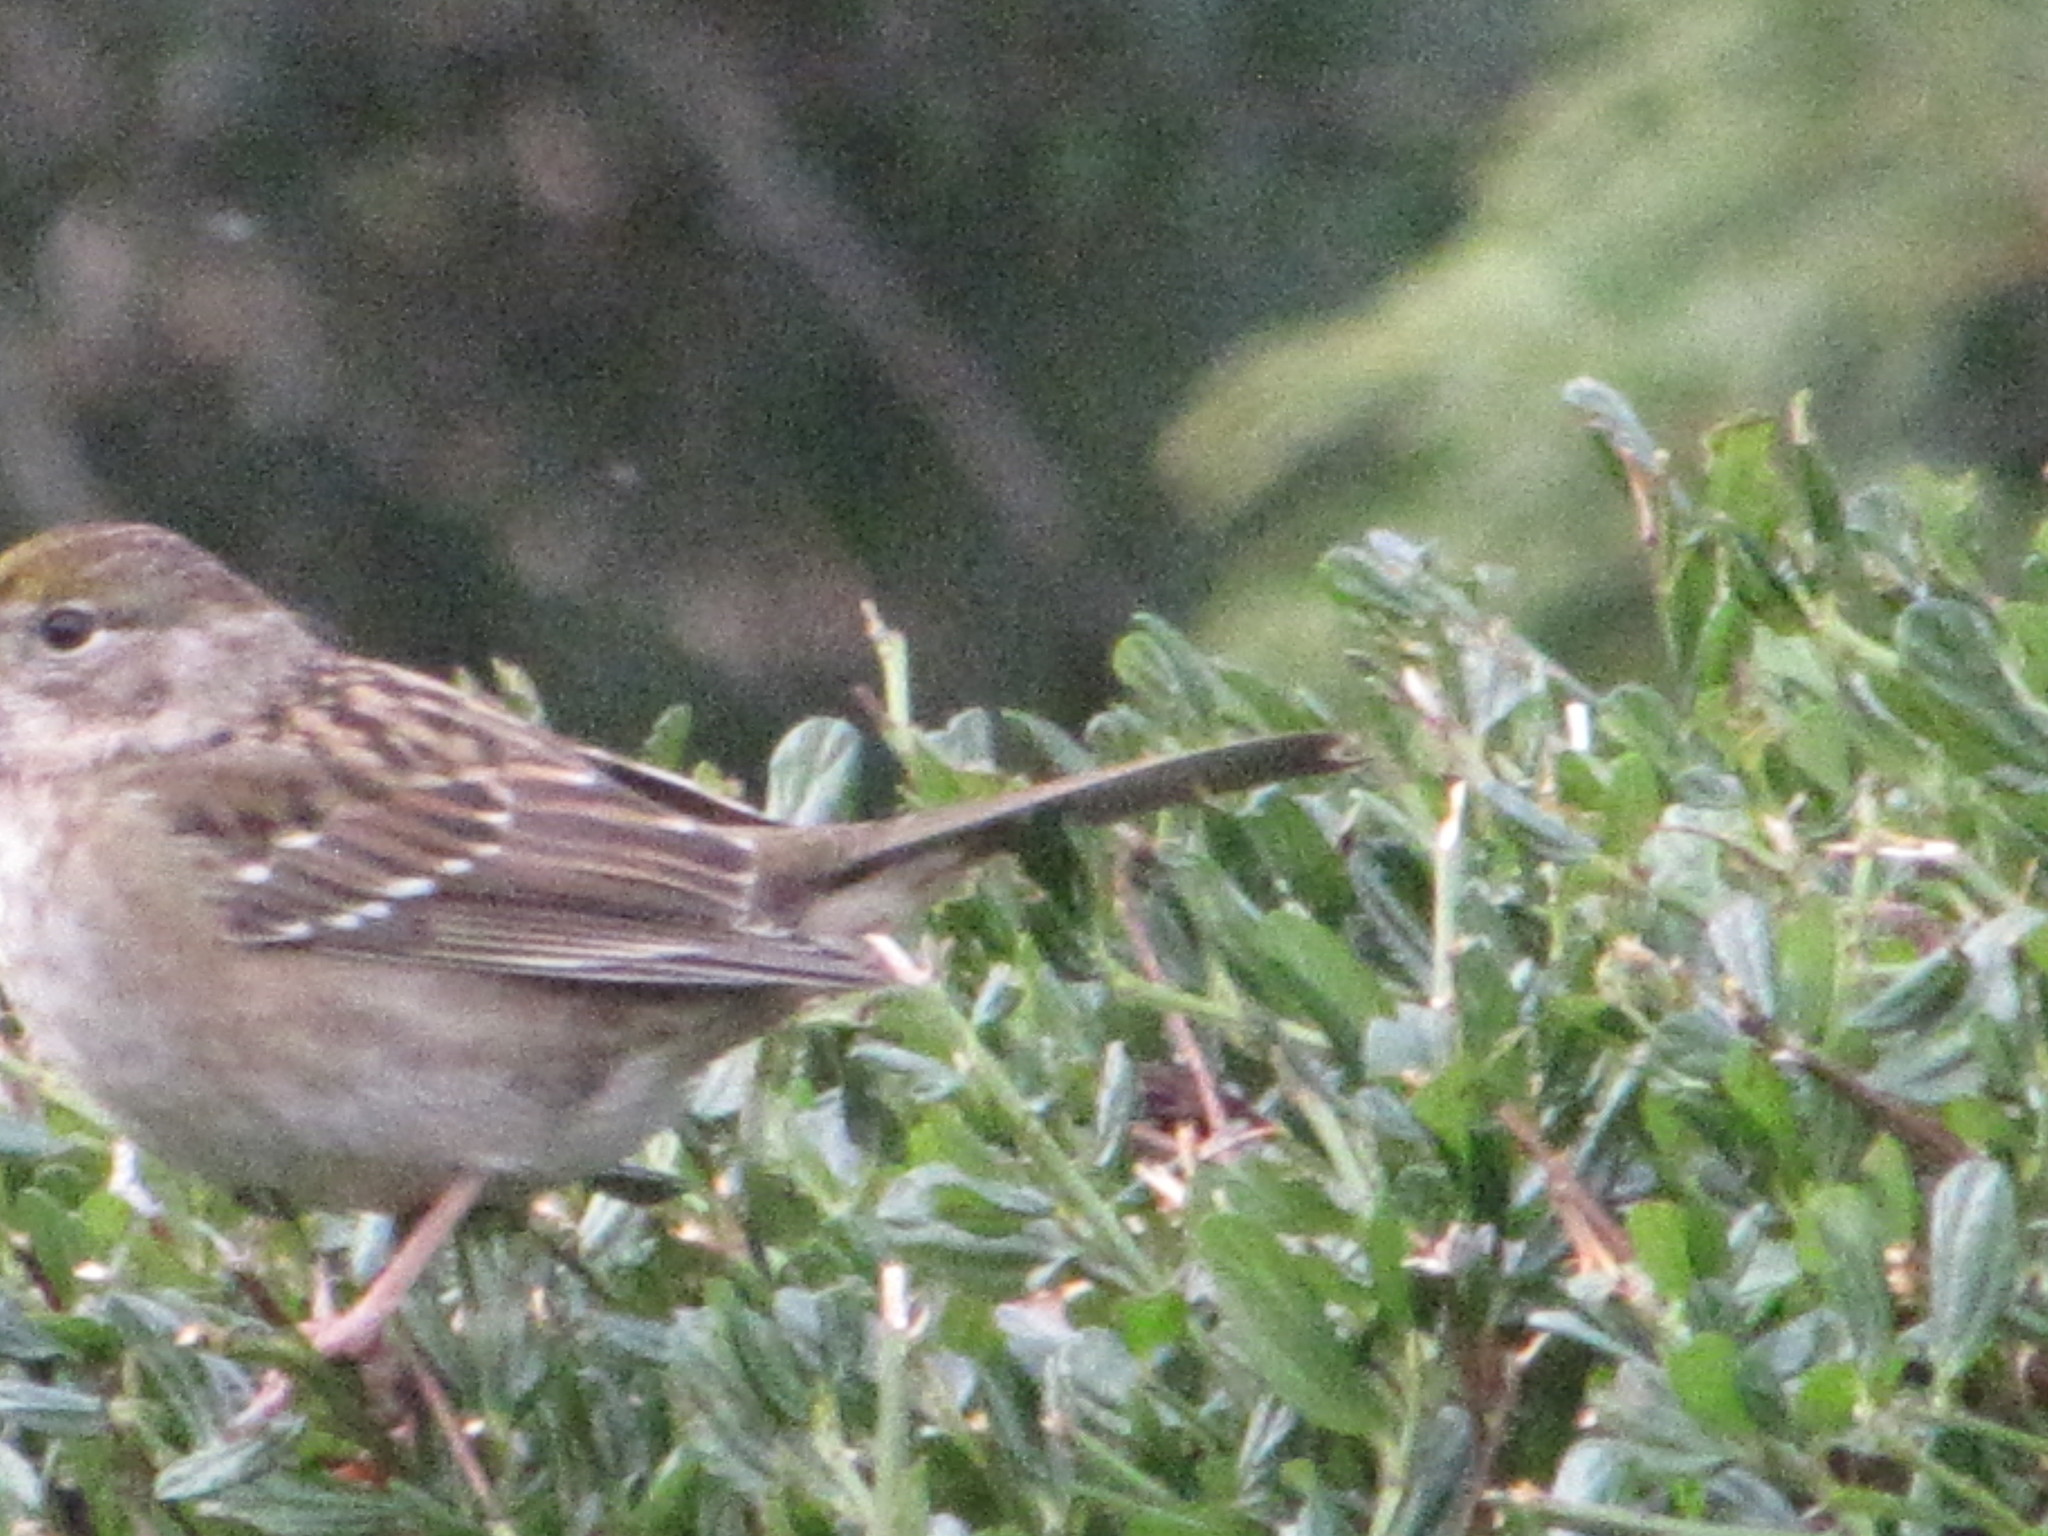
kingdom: Animalia
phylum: Chordata
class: Aves
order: Passeriformes
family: Passerellidae
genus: Zonotrichia
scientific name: Zonotrichia atricapilla
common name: Golden-crowned sparrow
